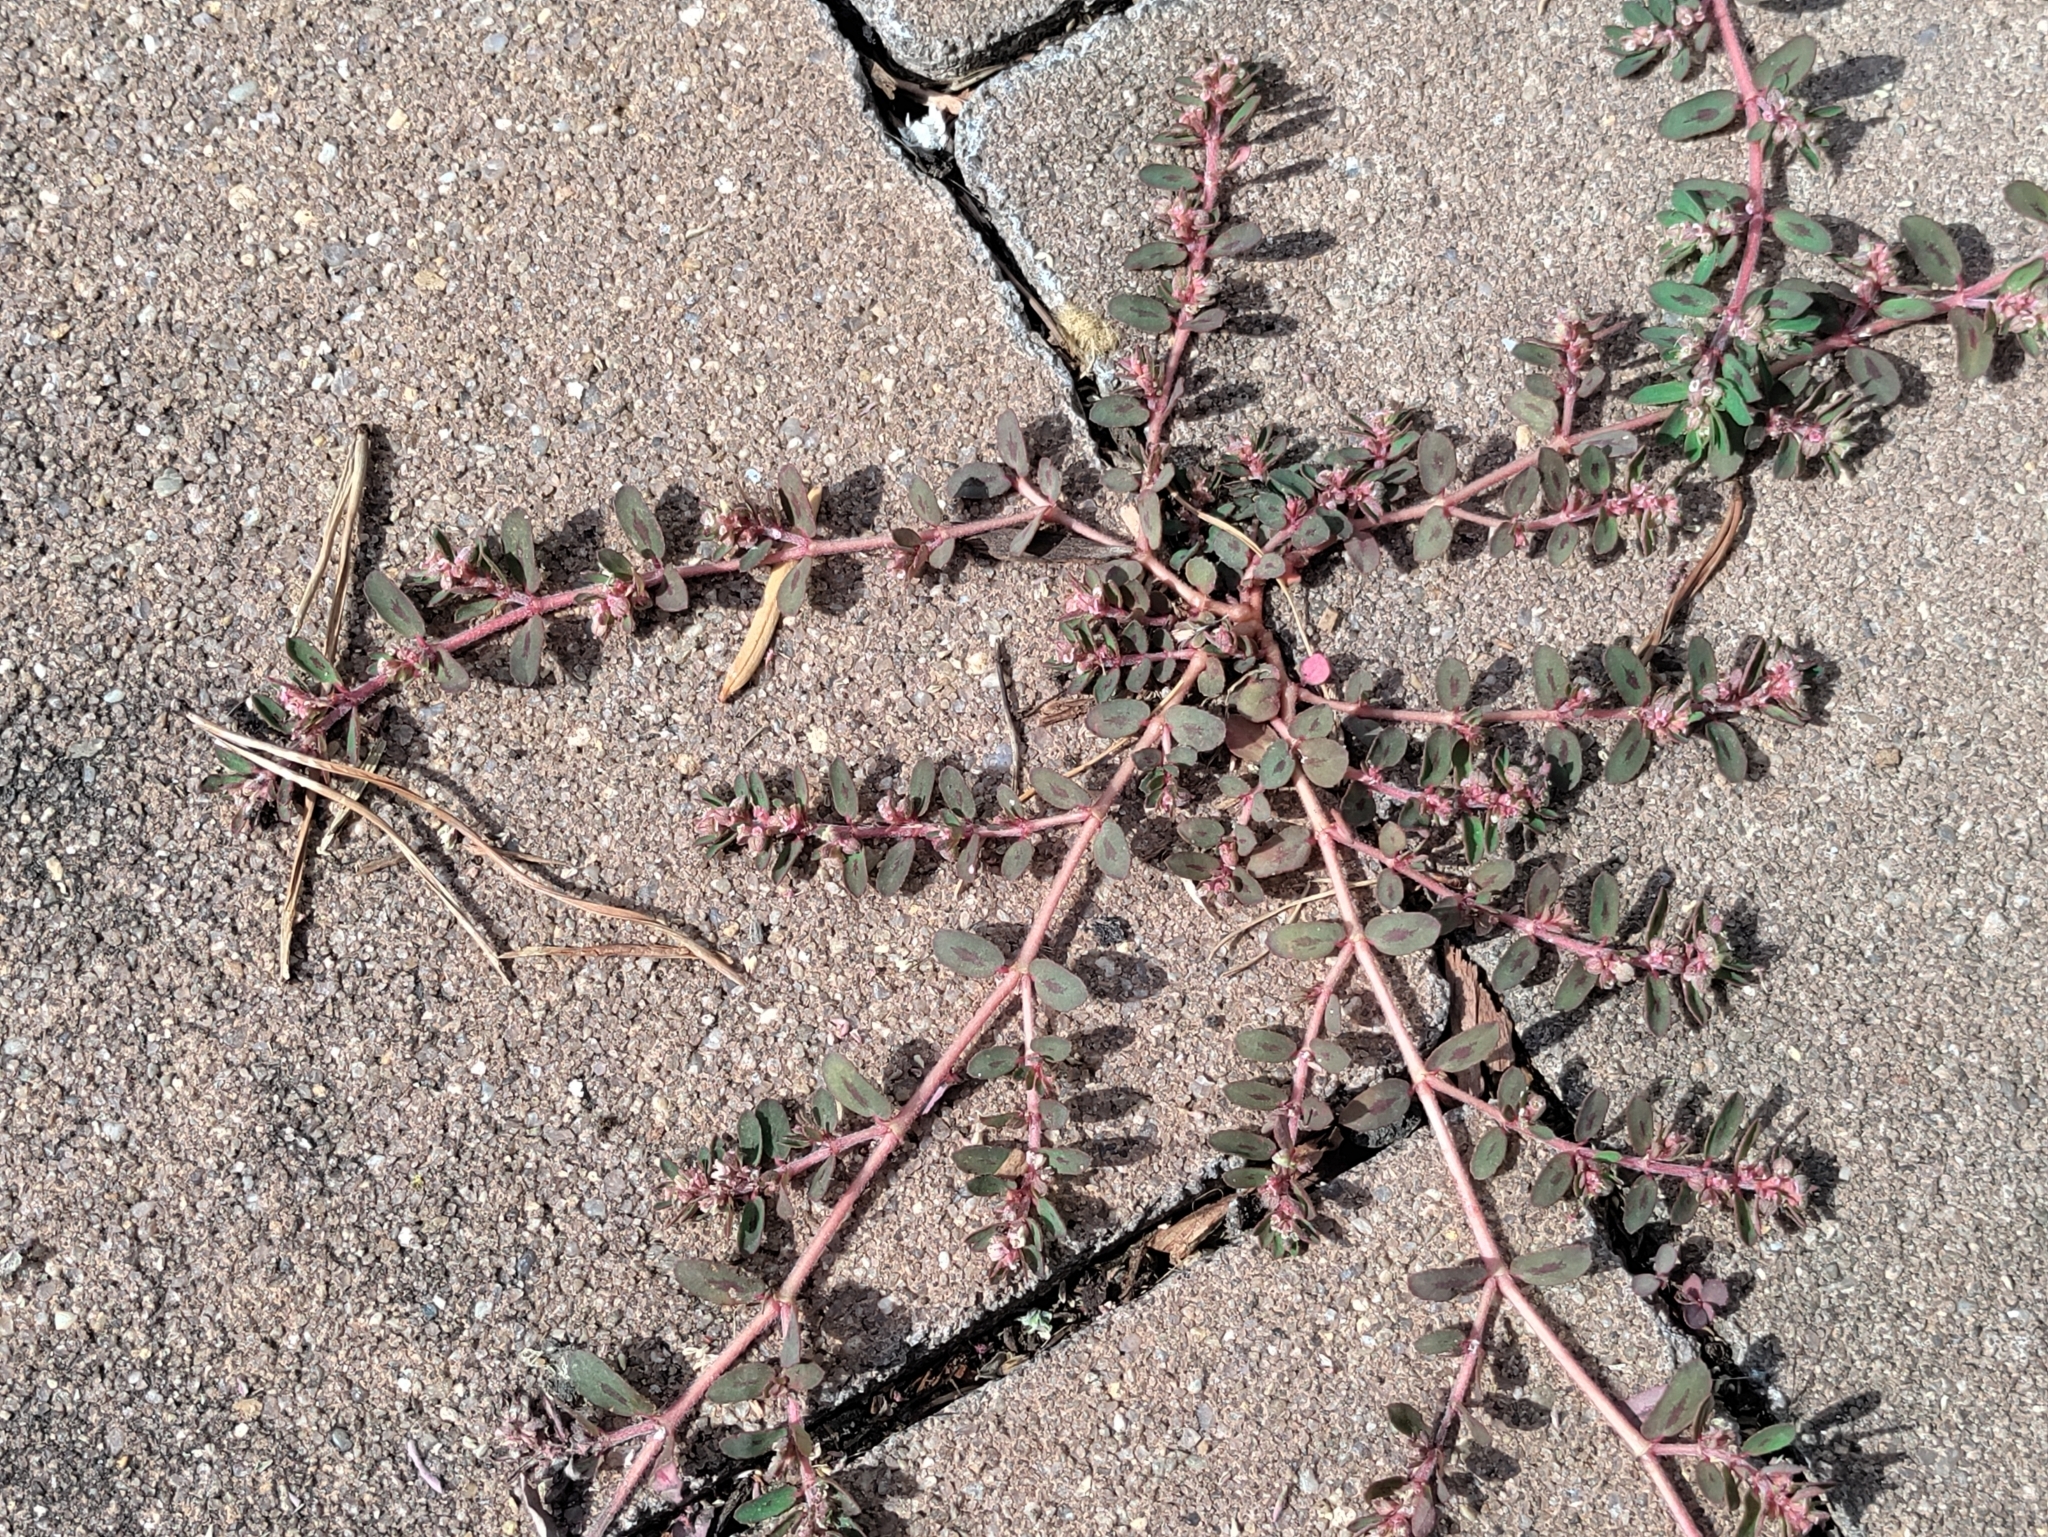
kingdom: Plantae
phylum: Tracheophyta
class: Magnoliopsida
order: Malpighiales
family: Euphorbiaceae
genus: Euphorbia
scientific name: Euphorbia maculata
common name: Spotted spurge
